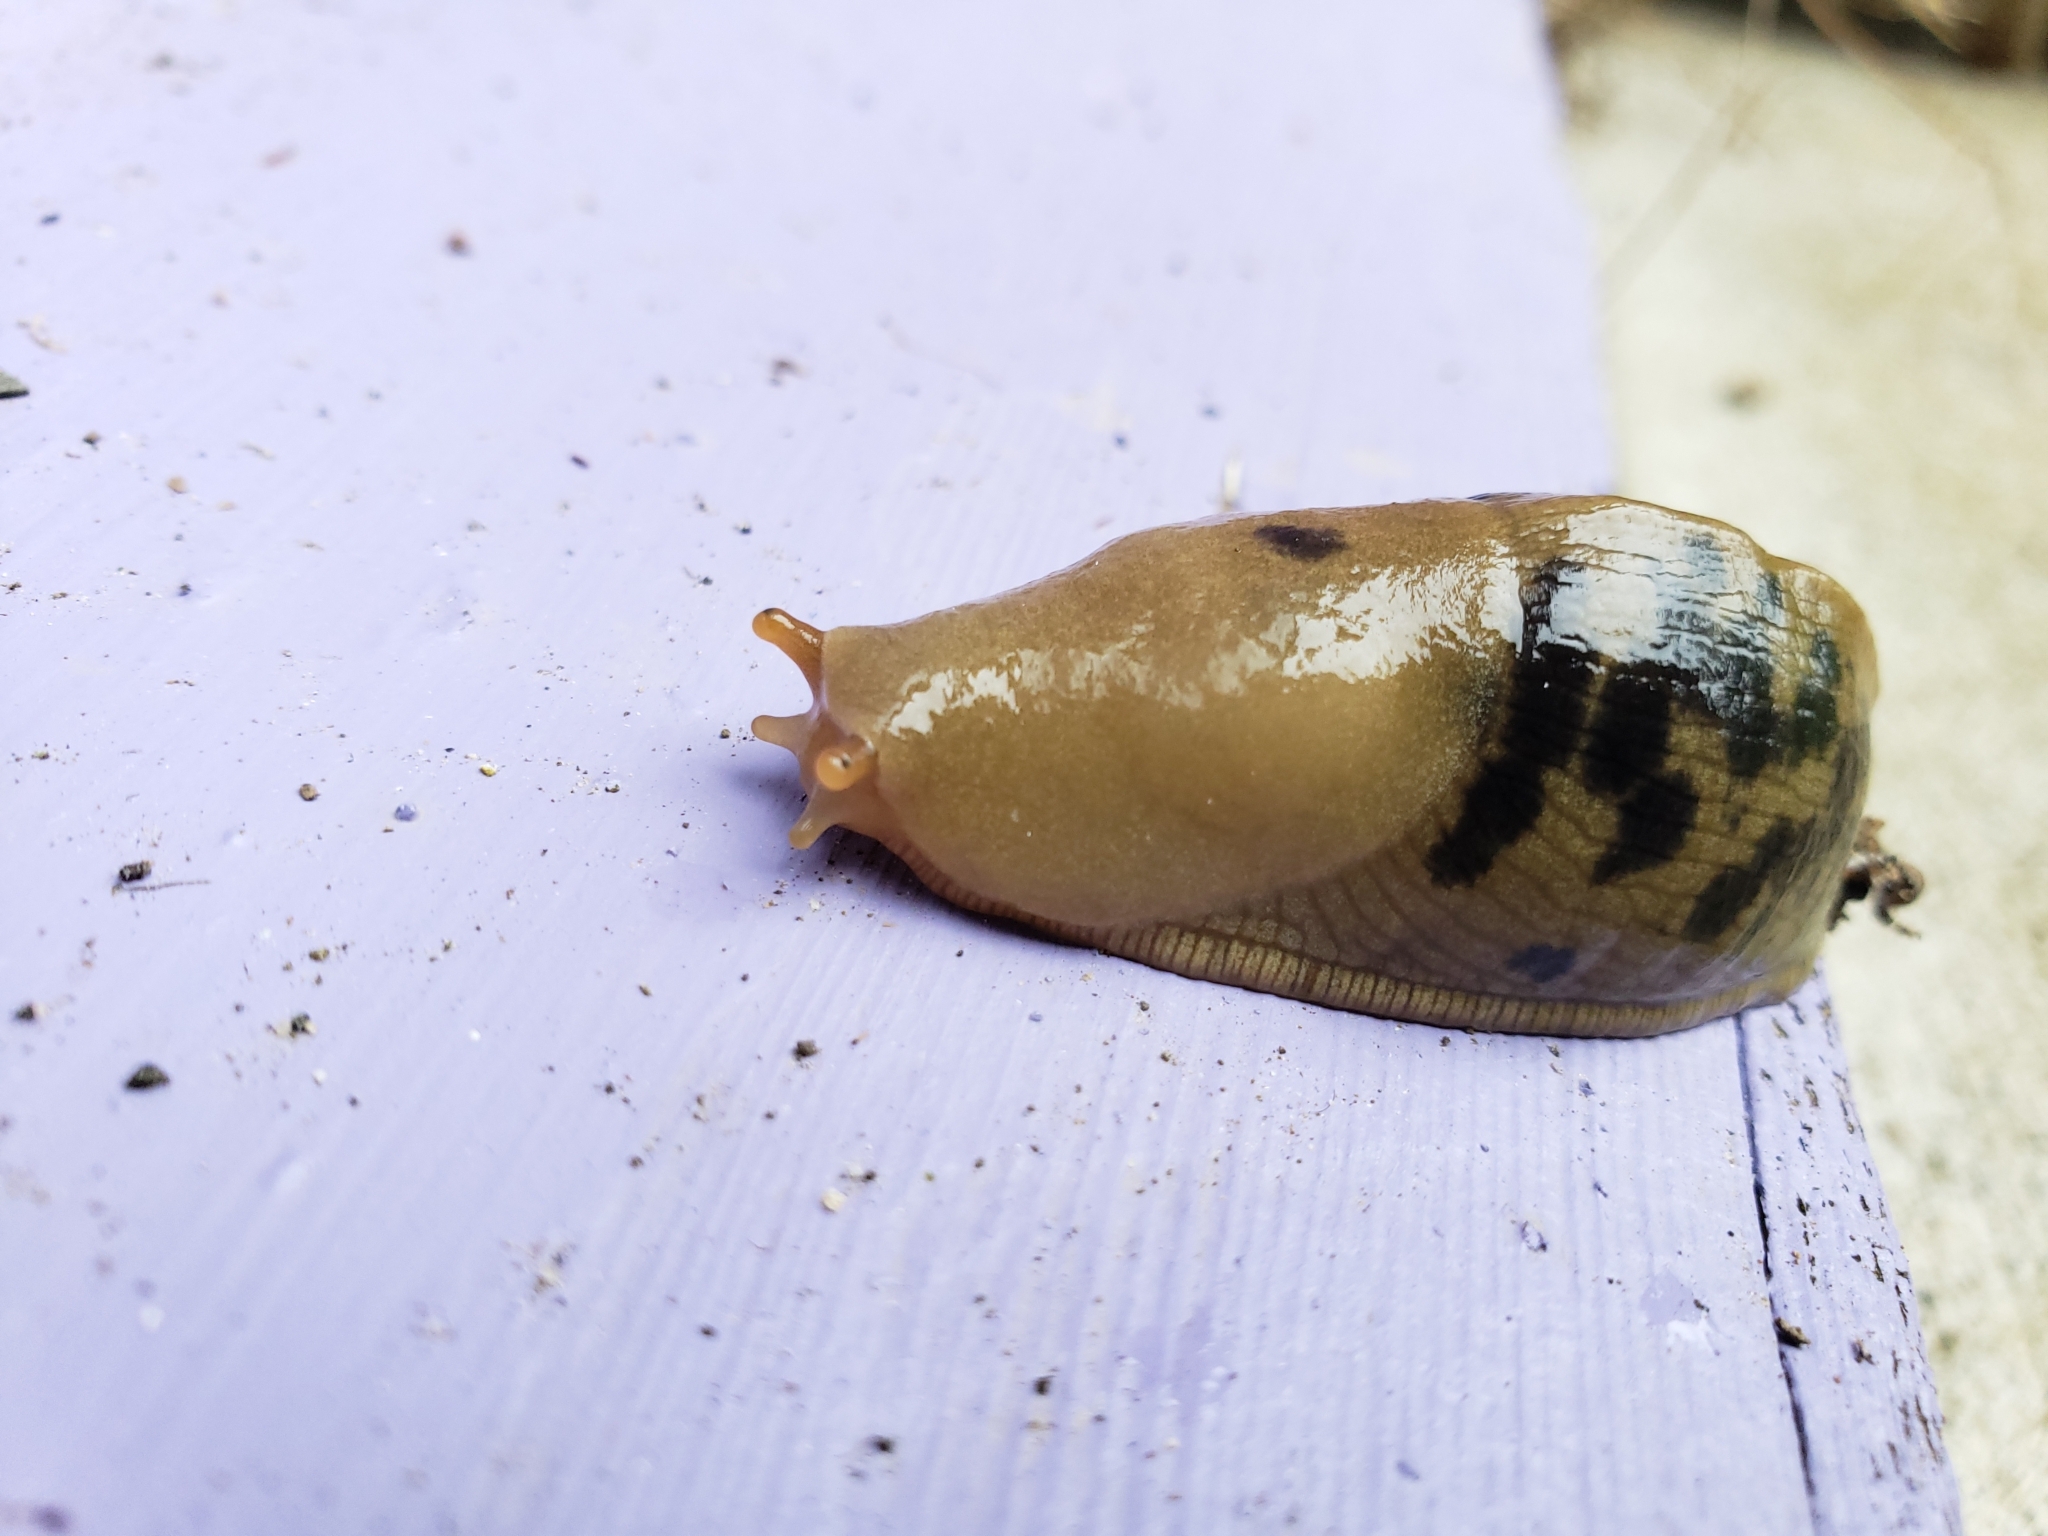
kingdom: Animalia
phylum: Mollusca
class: Gastropoda
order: Stylommatophora
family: Ariolimacidae
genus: Ariolimax
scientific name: Ariolimax columbianus
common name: Pacific banana slug
